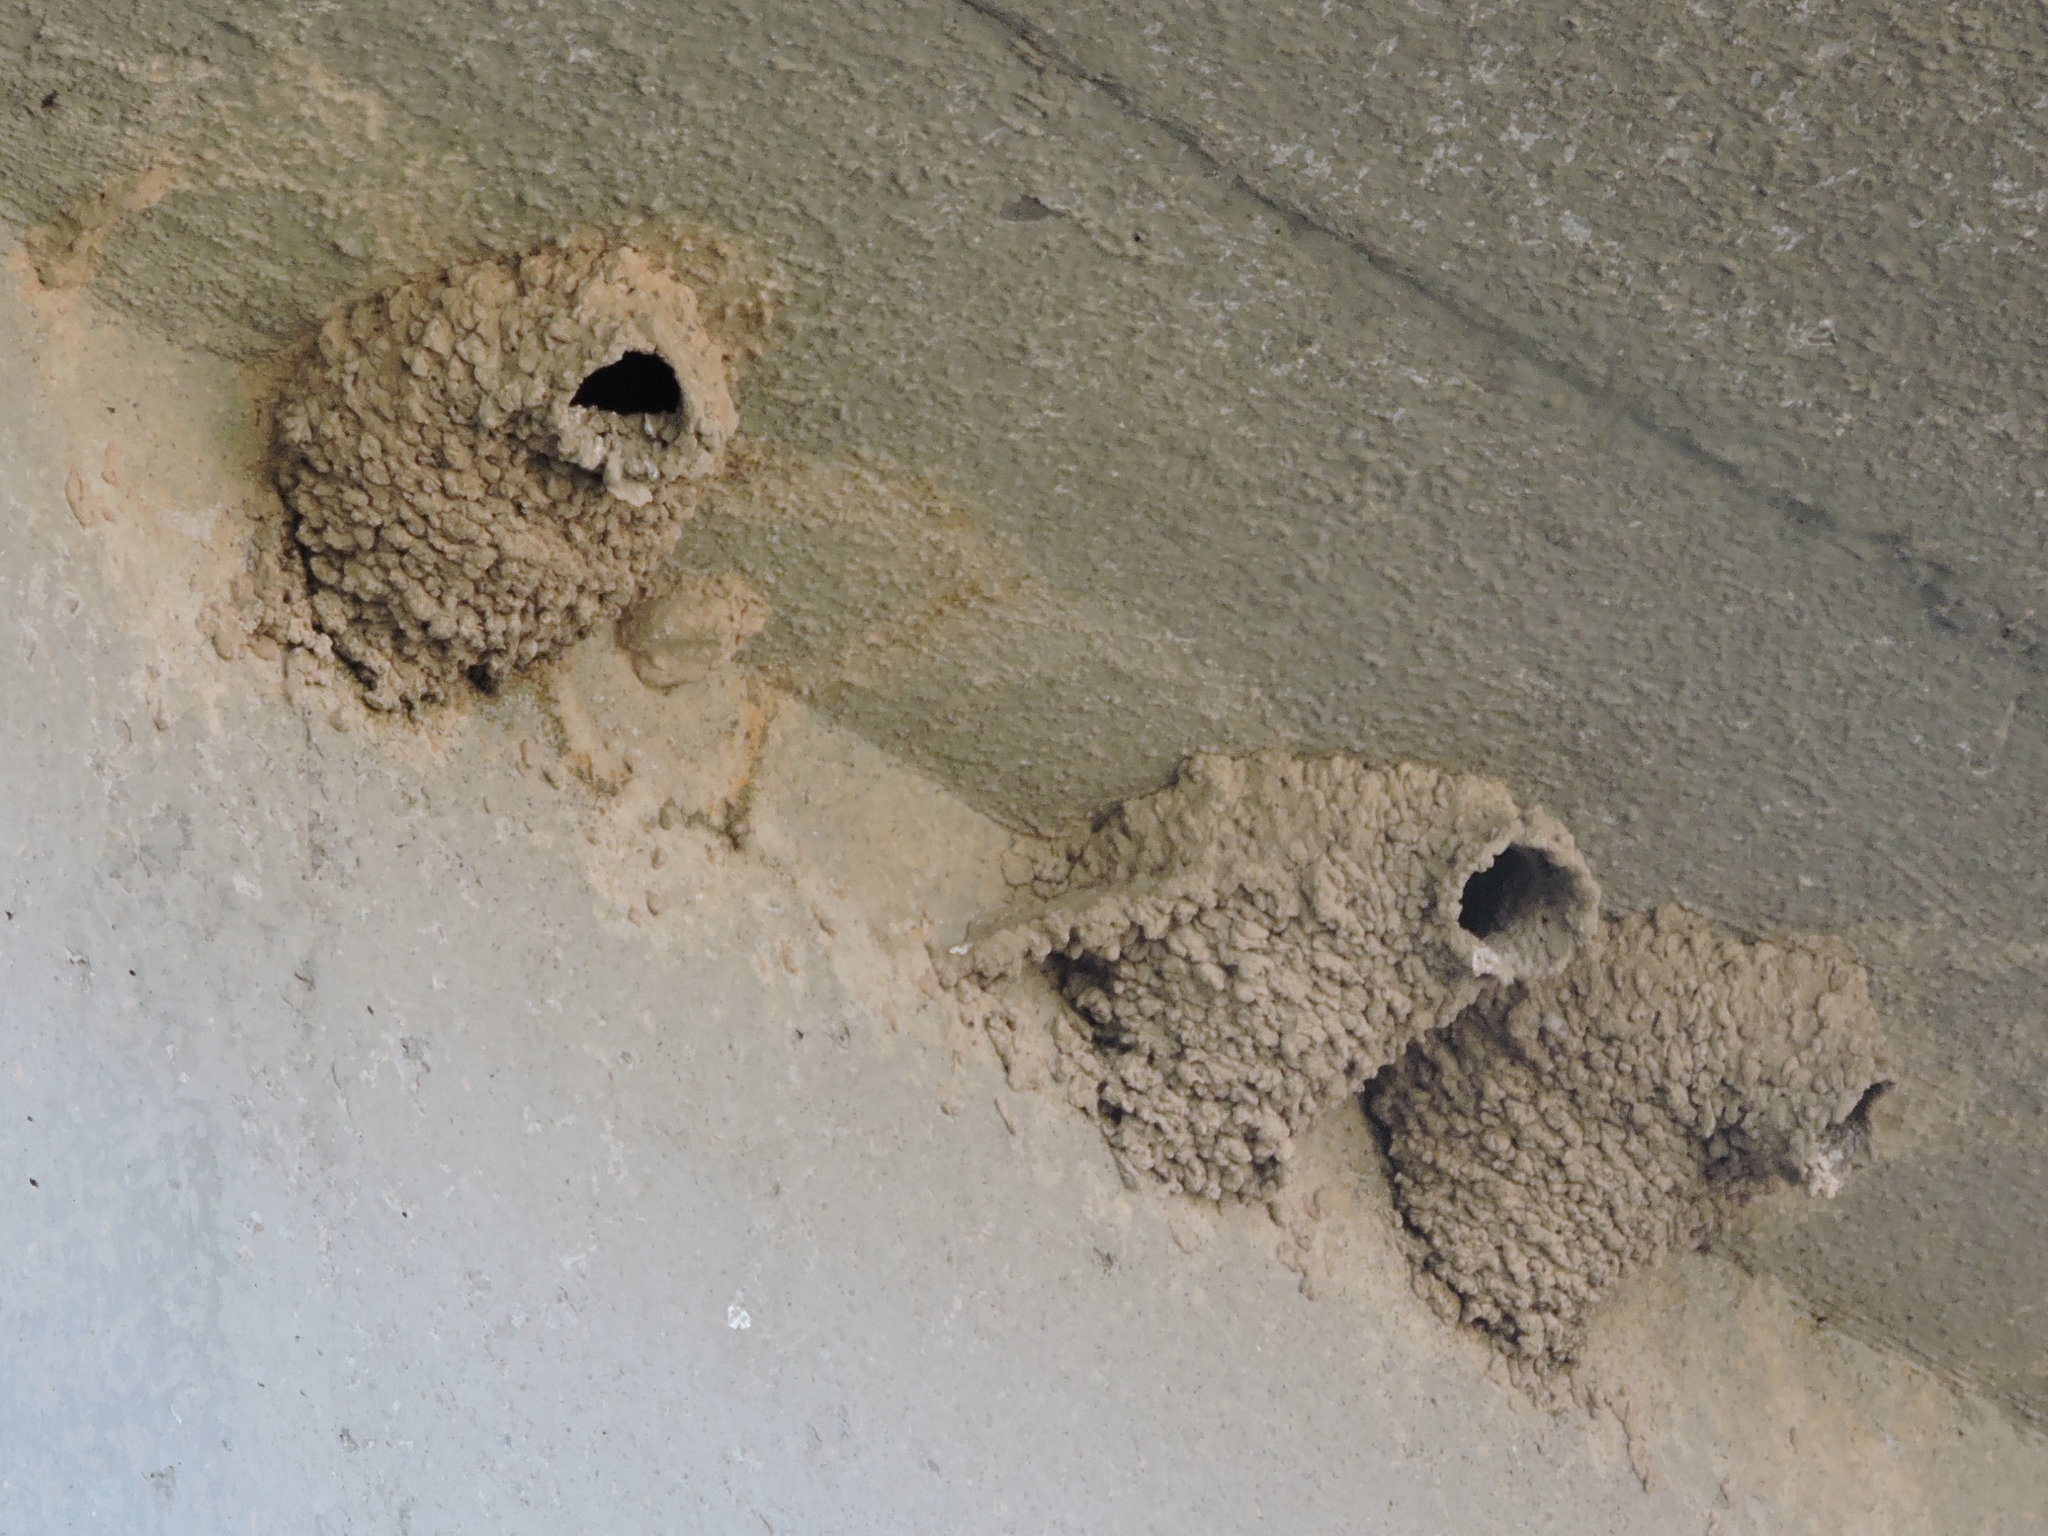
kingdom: Animalia
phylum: Chordata
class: Aves
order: Passeriformes
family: Hirundinidae
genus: Petrochelidon
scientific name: Petrochelidon pyrrhonota
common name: American cliff swallow
